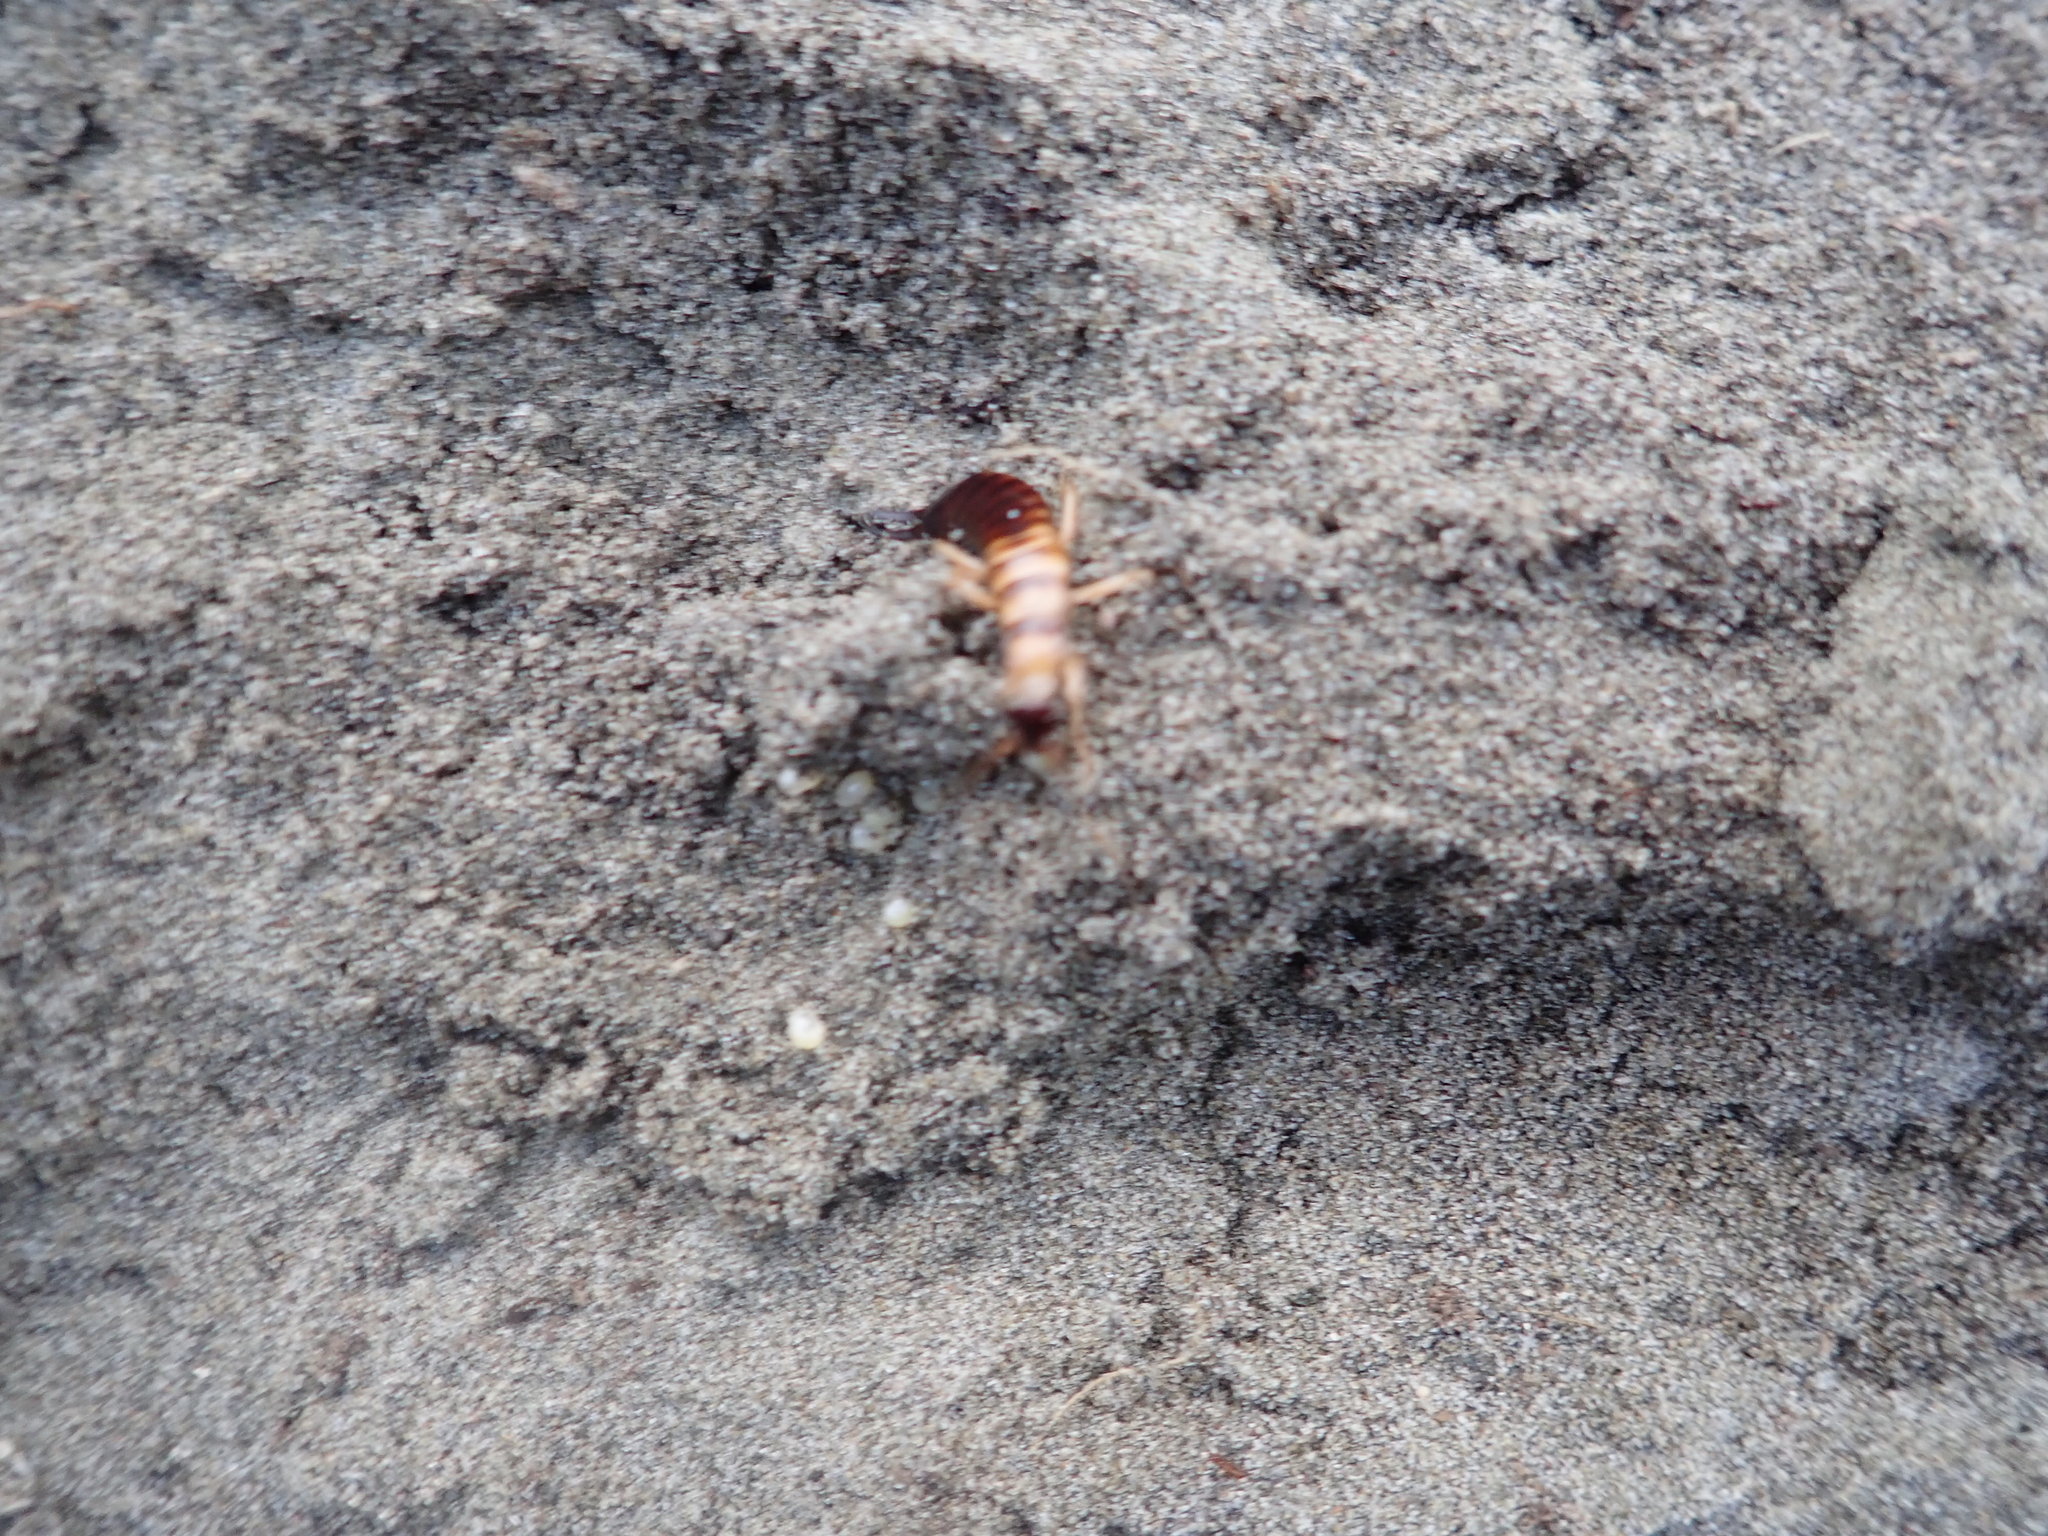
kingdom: Animalia
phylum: Arthropoda
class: Insecta
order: Dermaptera
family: Anisolabididae
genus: Anisolabis
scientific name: Anisolabis littorea
